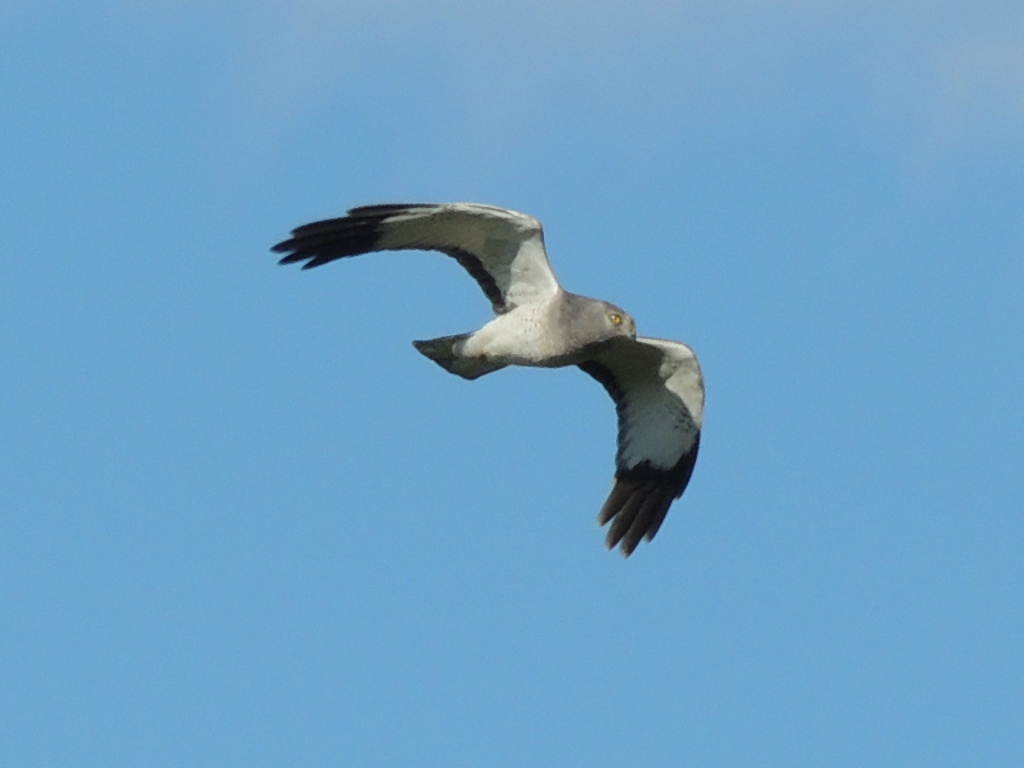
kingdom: Animalia
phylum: Chordata
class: Aves
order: Accipitriformes
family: Accipitridae
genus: Circus
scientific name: Circus cyaneus
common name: Hen harrier
